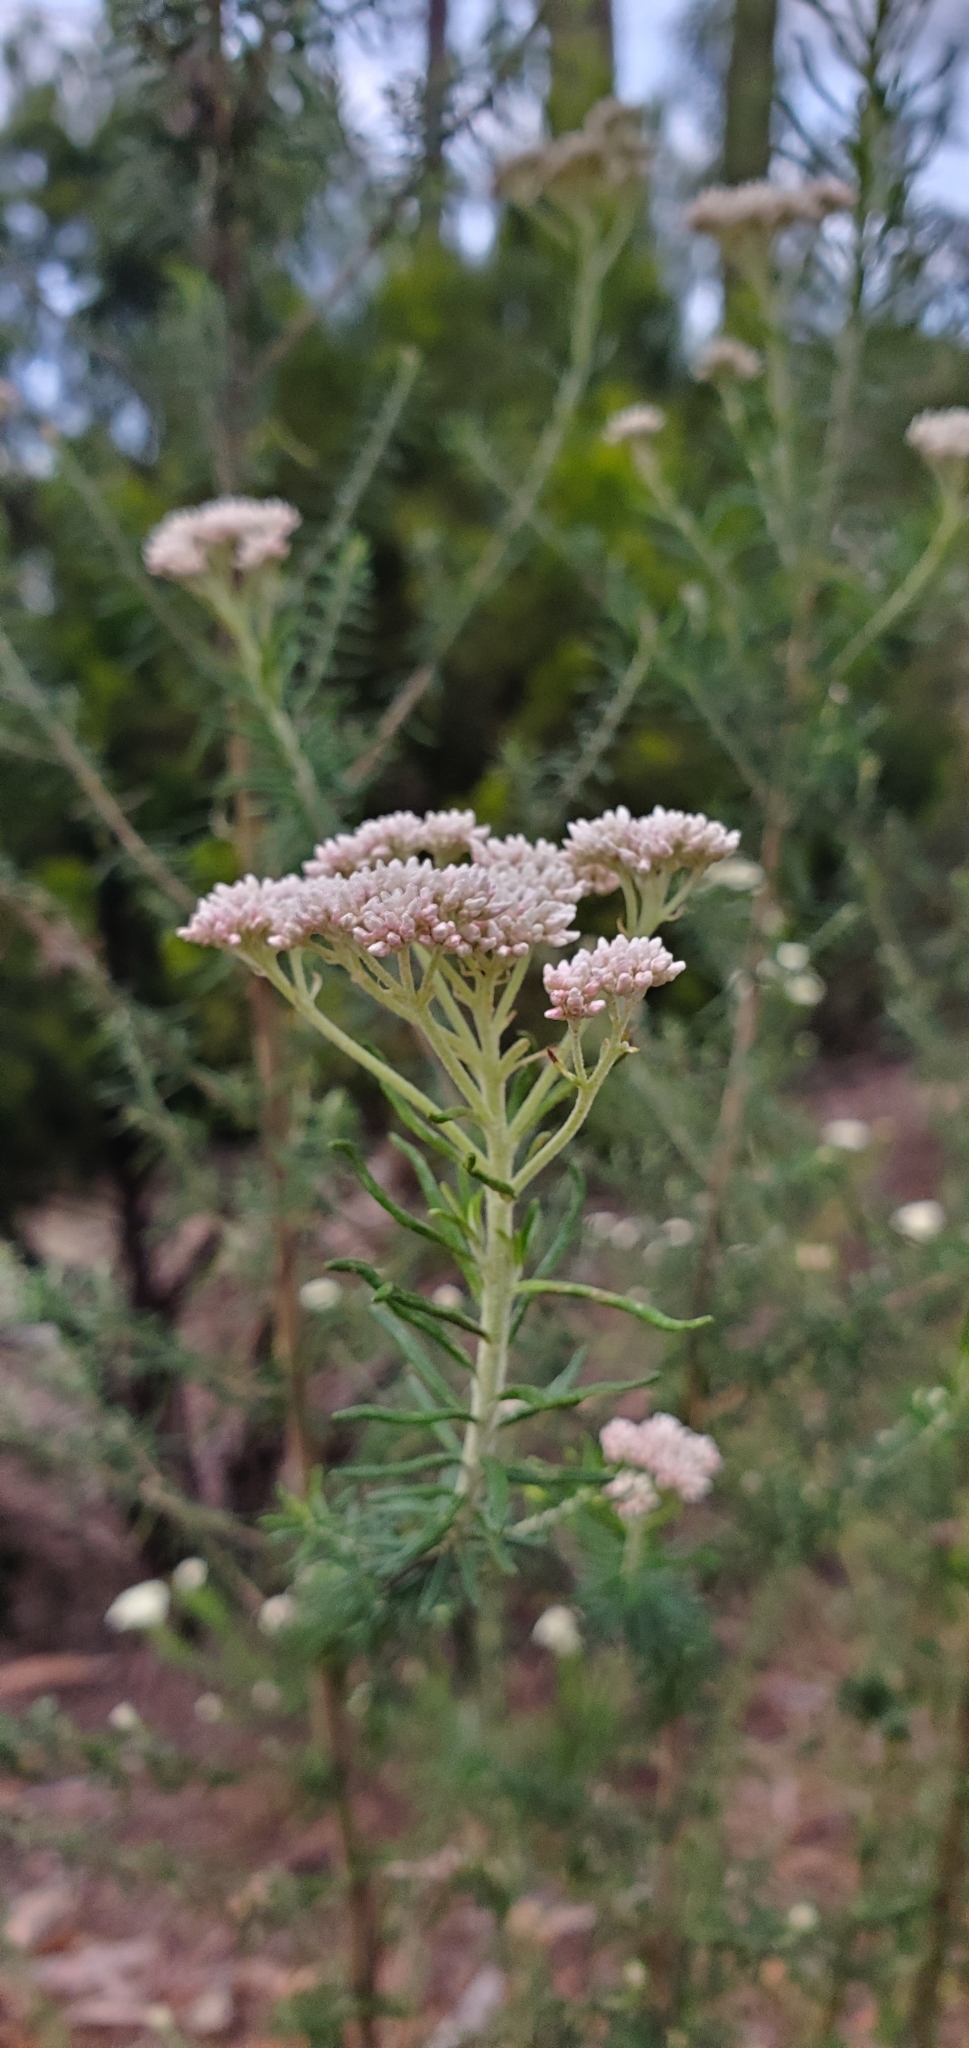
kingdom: Plantae
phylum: Tracheophyta
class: Magnoliopsida
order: Asterales
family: Asteraceae
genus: Cassinia
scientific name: Cassinia aculeata
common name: Australian tauhinu
